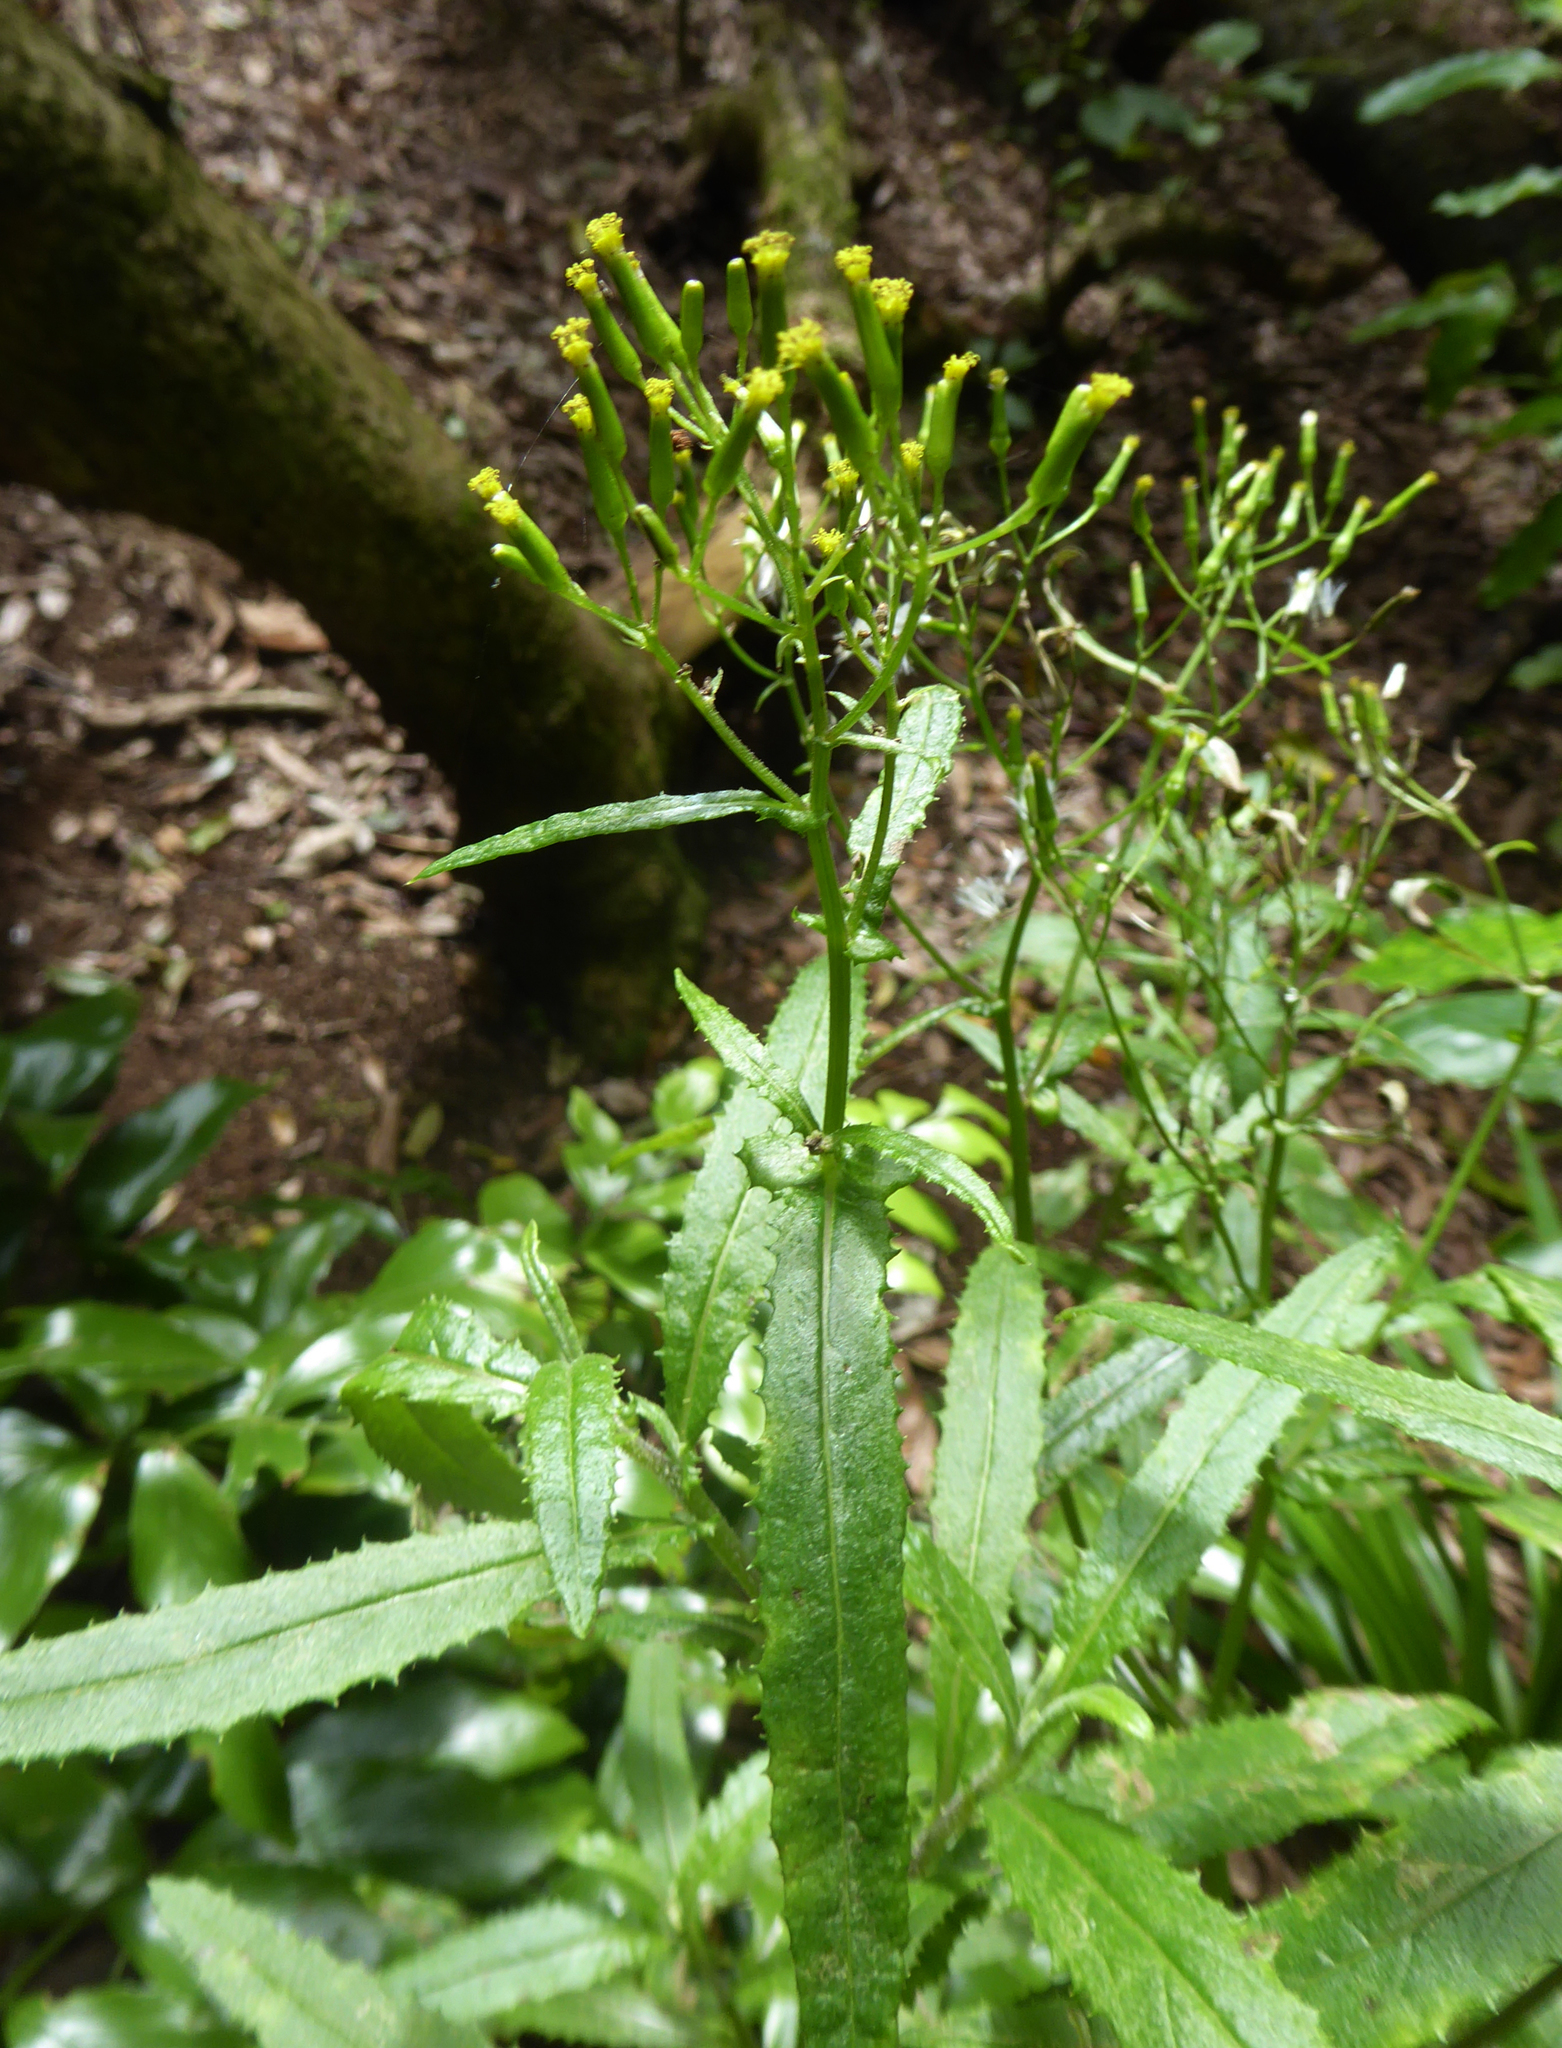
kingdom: Plantae
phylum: Tracheophyta
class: Magnoliopsida
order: Asterales
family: Asteraceae
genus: Senecio
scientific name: Senecio minimus
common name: Toothed fireweed
